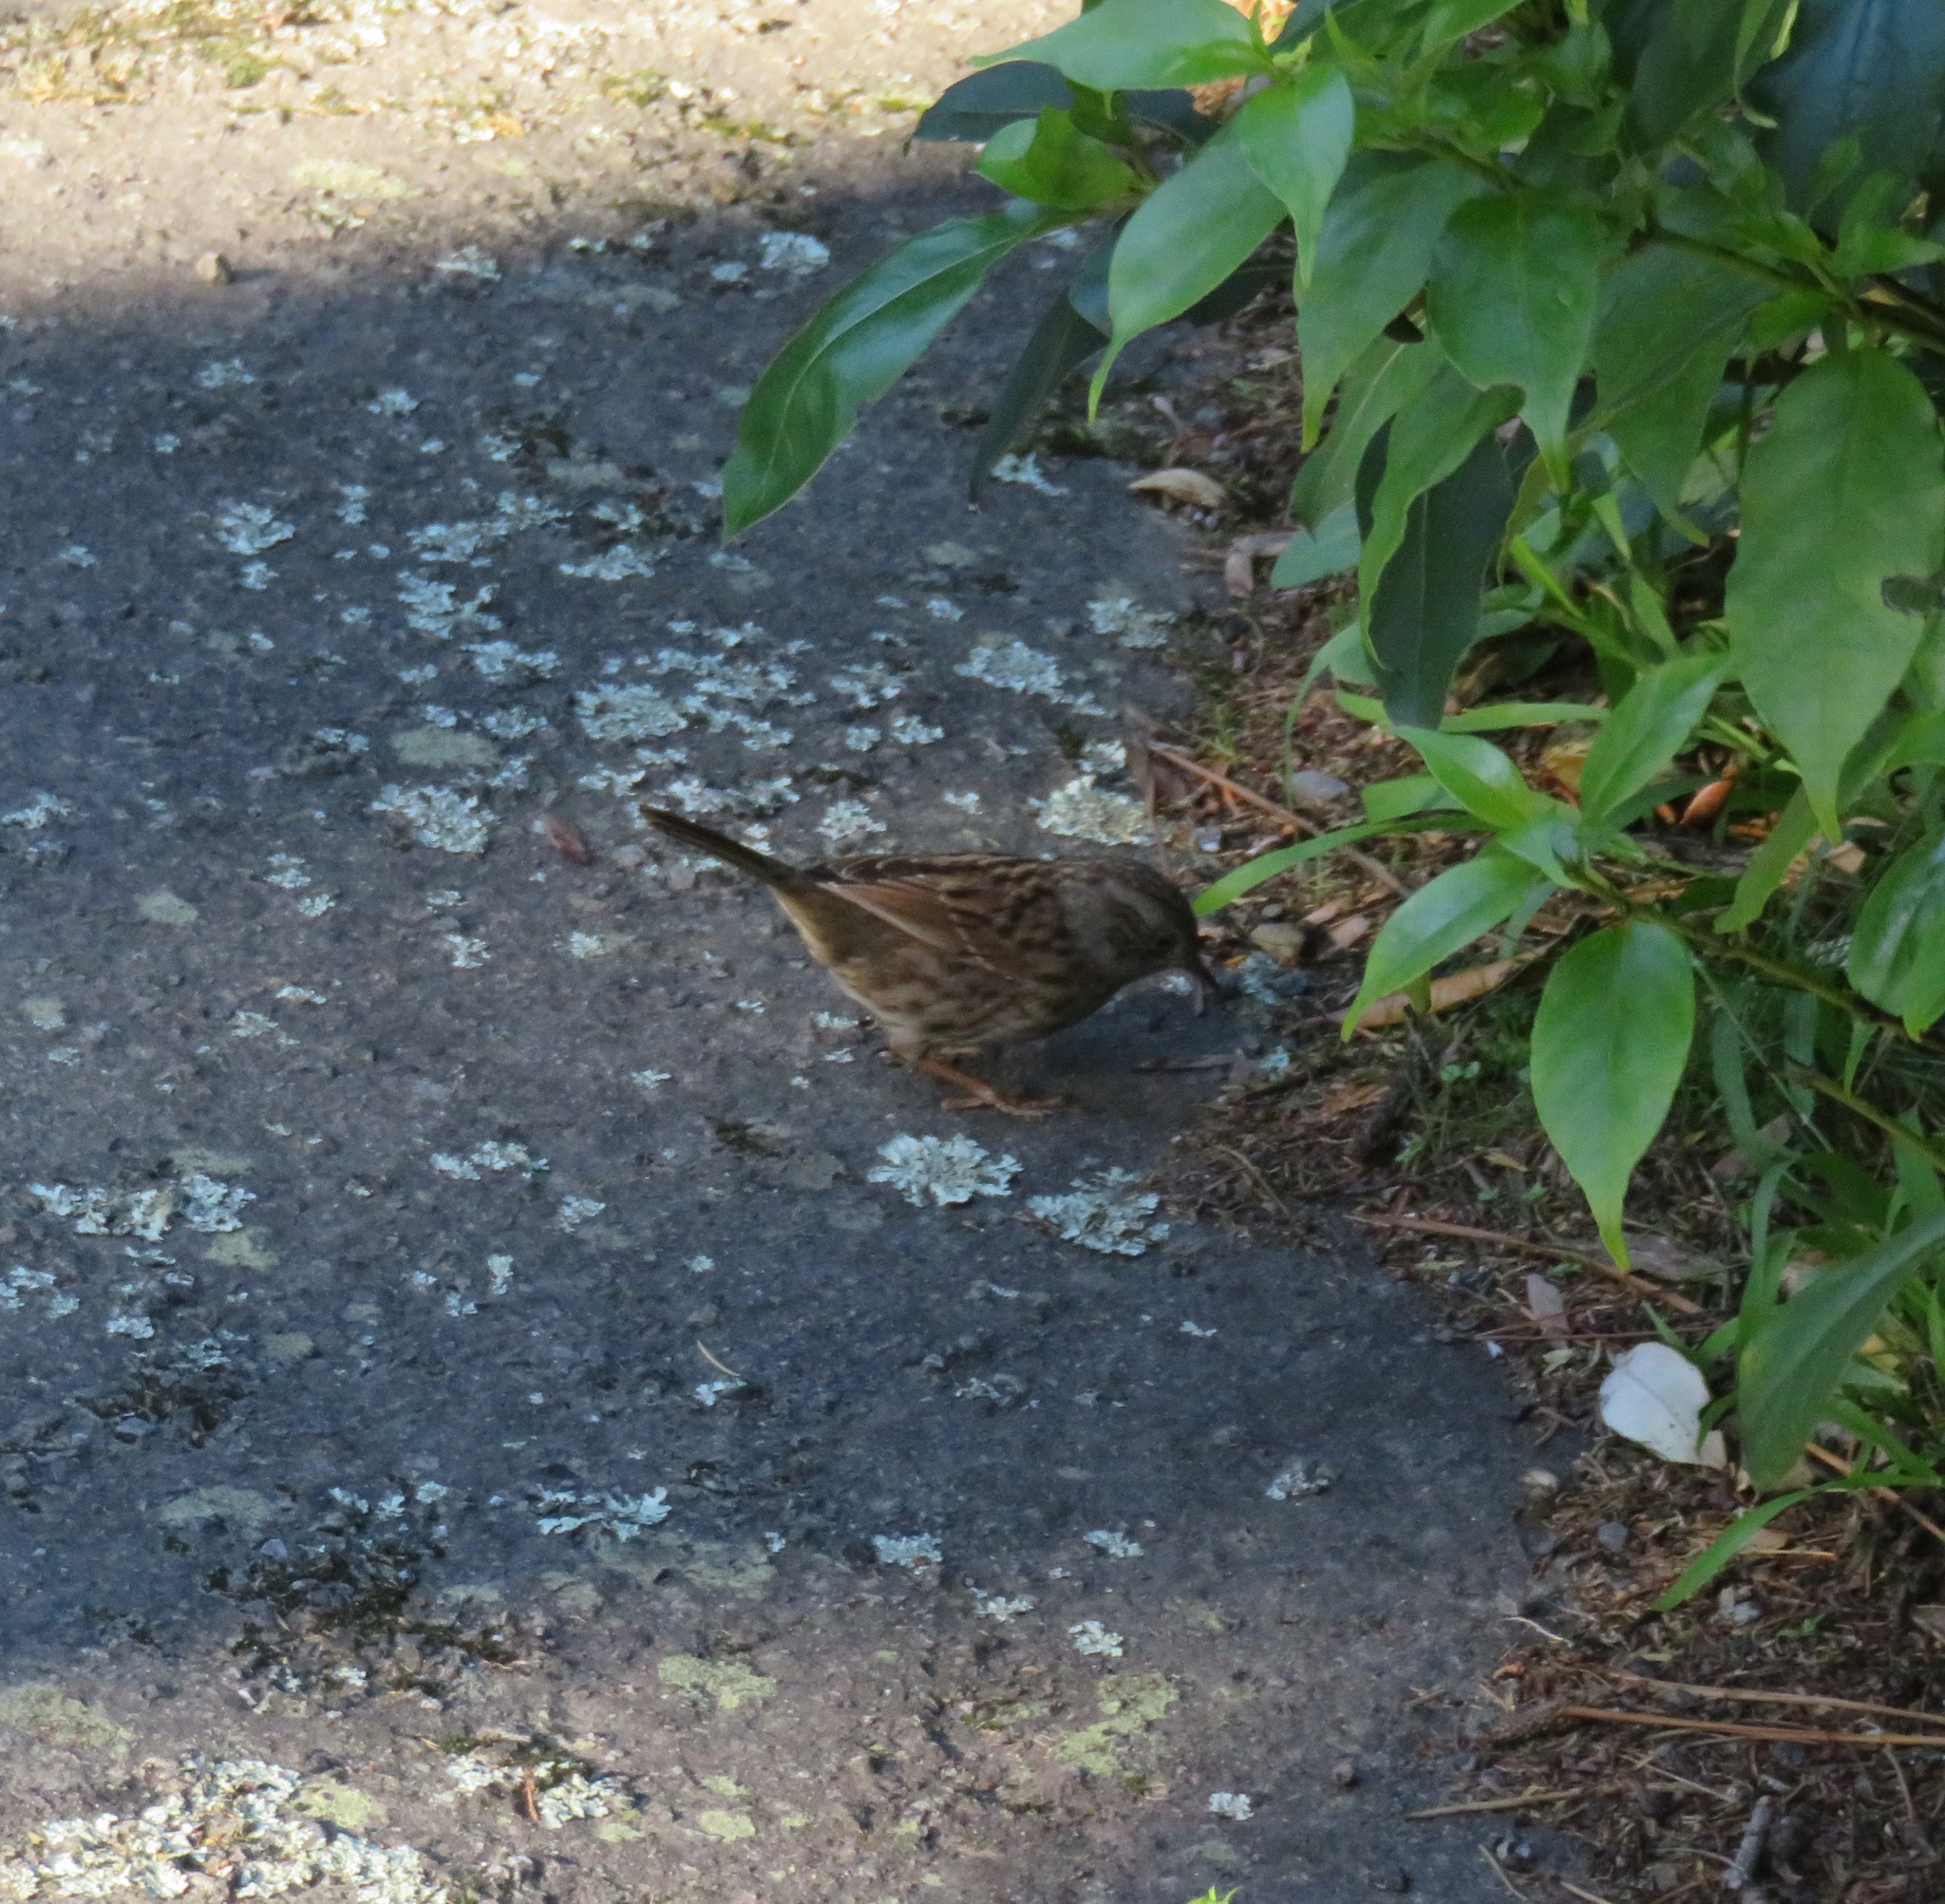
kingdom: Animalia
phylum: Chordata
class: Aves
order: Passeriformes
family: Prunellidae
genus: Prunella
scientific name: Prunella modularis
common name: Dunnock
